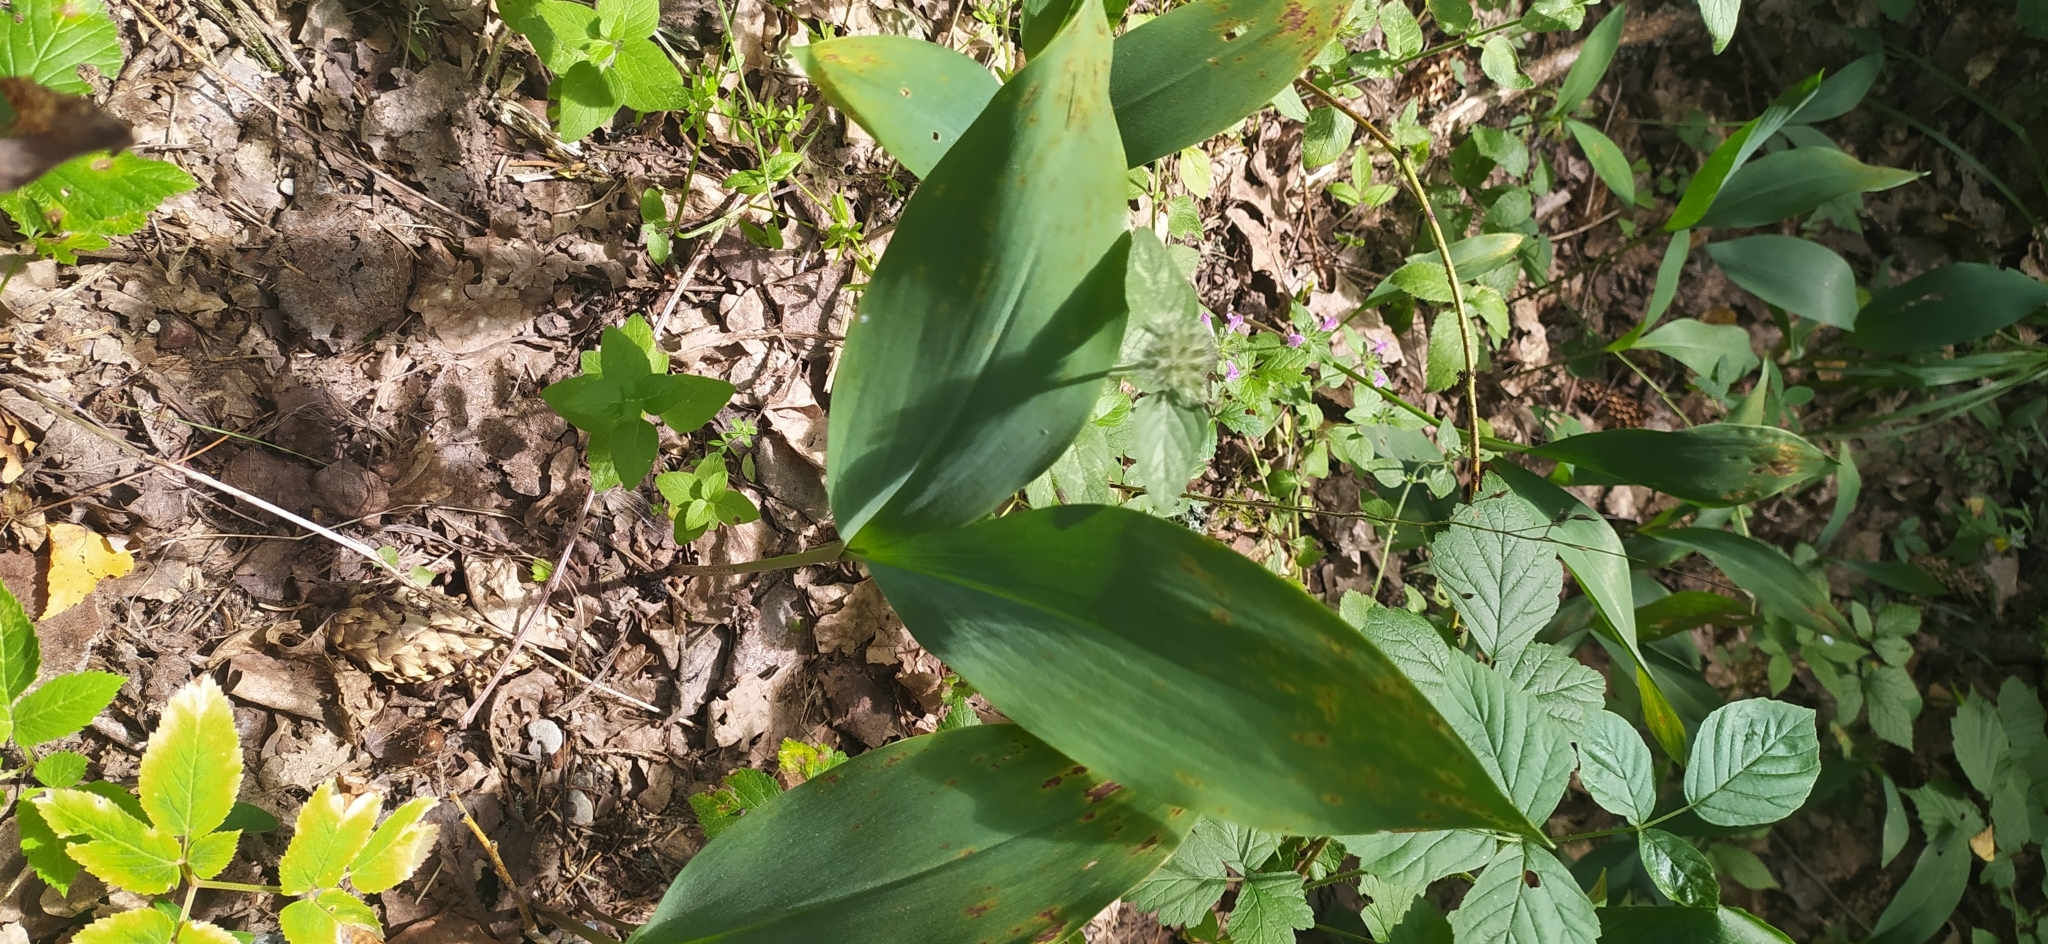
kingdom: Plantae
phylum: Tracheophyta
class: Liliopsida
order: Asparagales
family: Asparagaceae
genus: Convallaria
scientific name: Convallaria majalis
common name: Lily-of-the-valley
